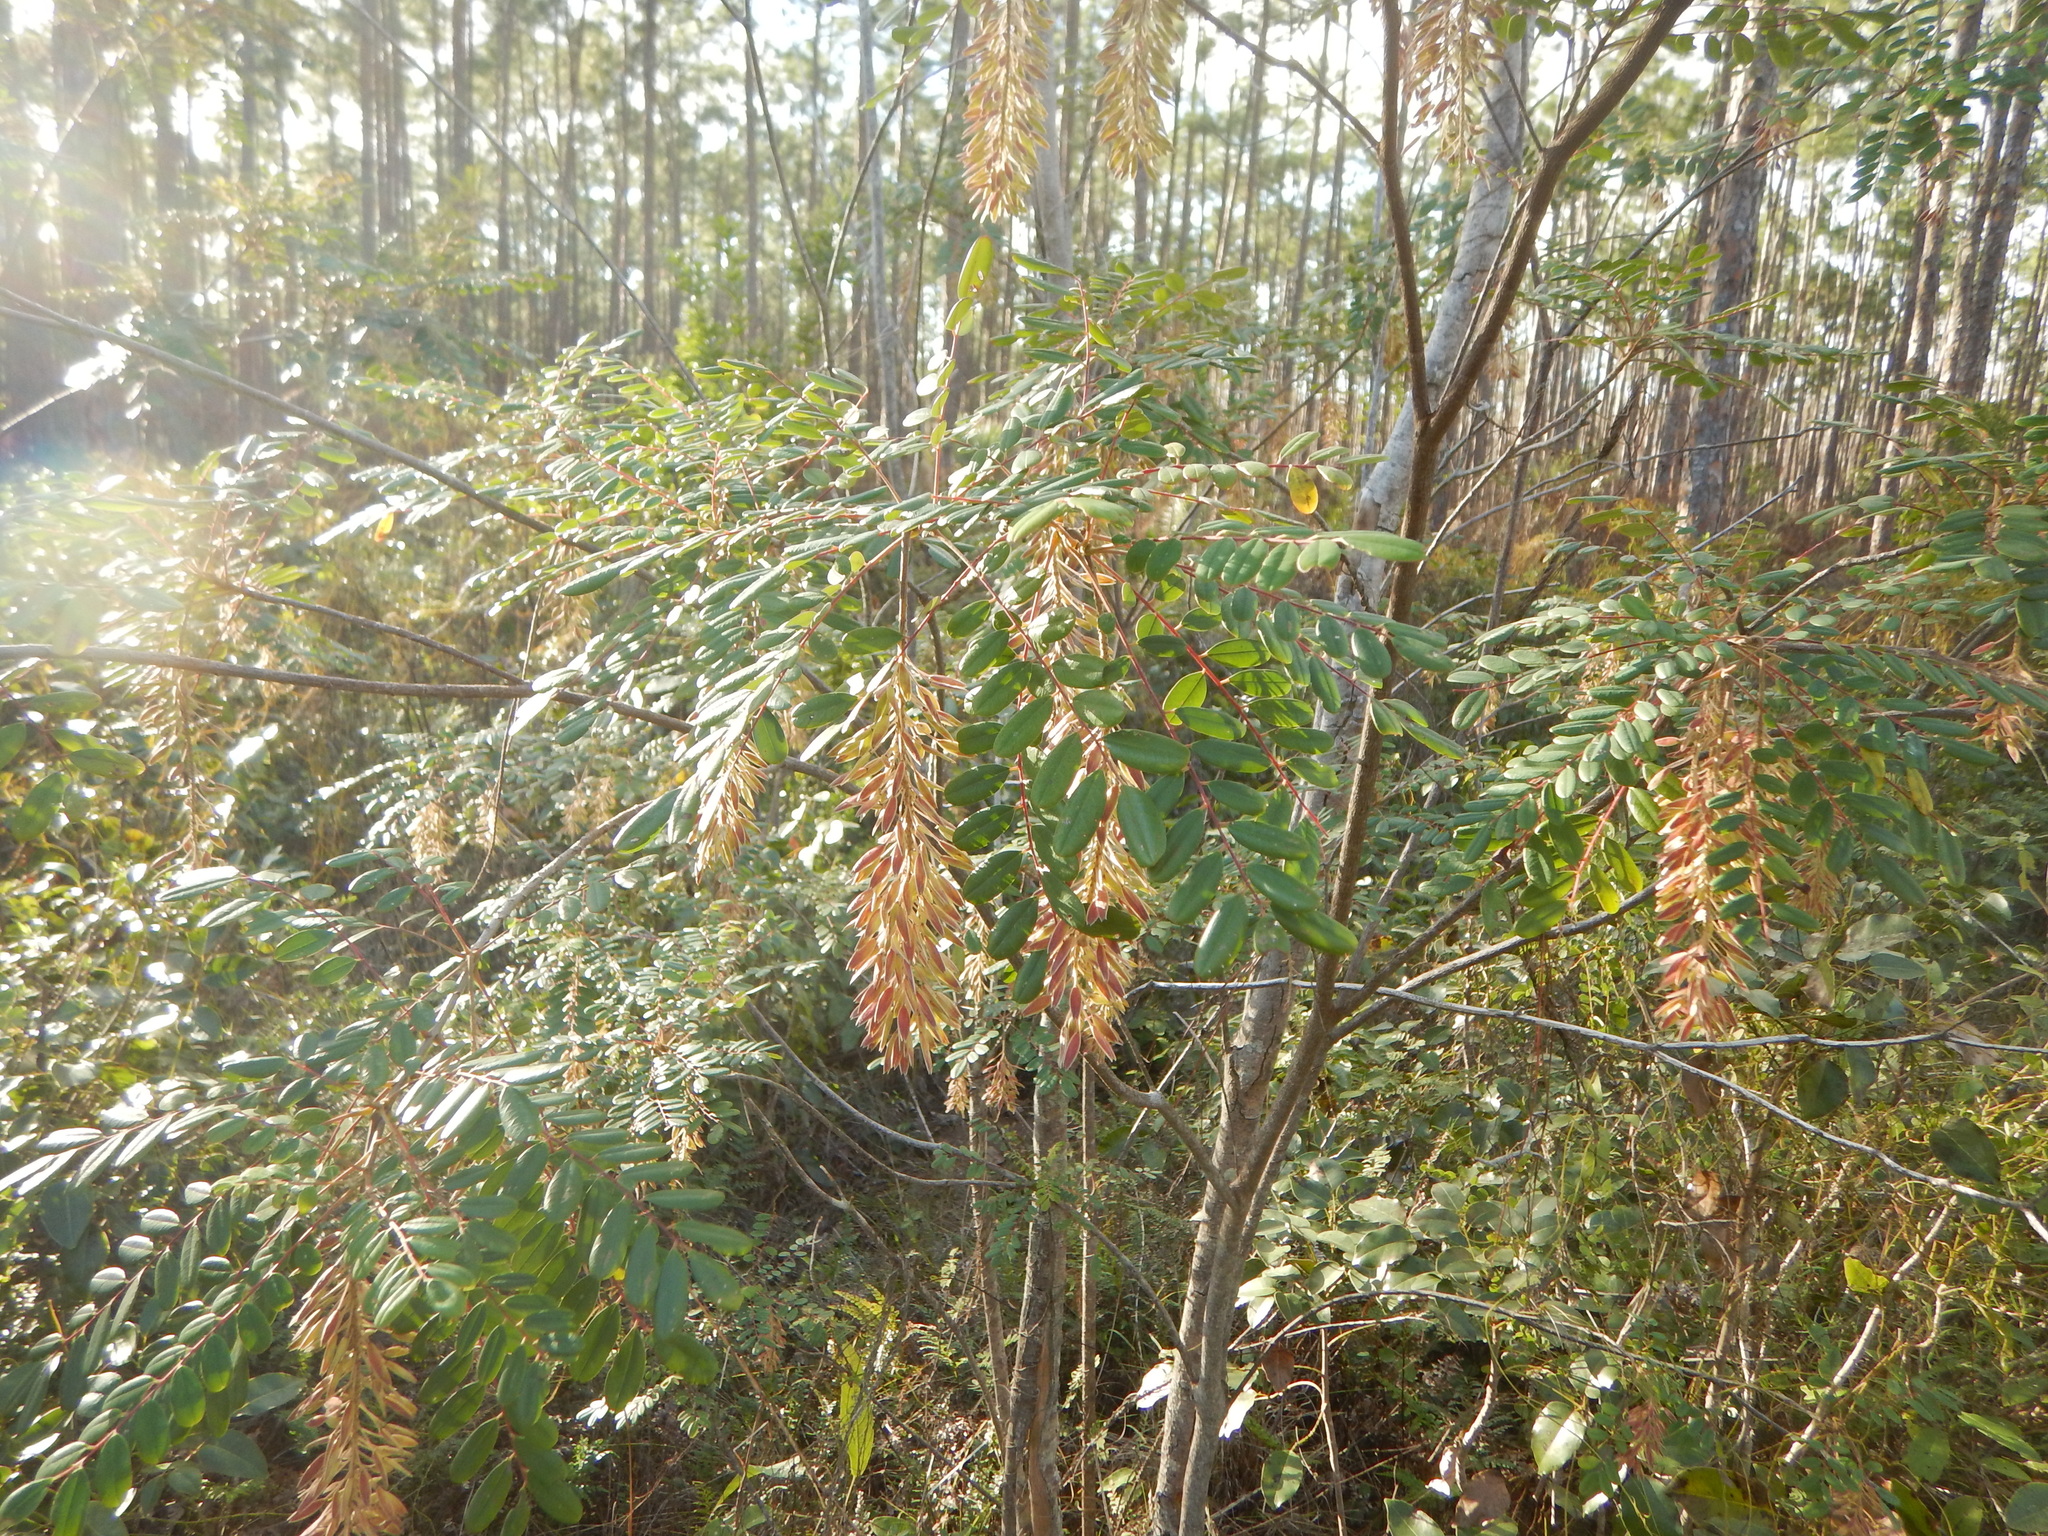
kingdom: Plantae
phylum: Tracheophyta
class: Magnoliopsida
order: Picramniales
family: Picramniaceae
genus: Alvaradoa
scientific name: Alvaradoa amorphoides
